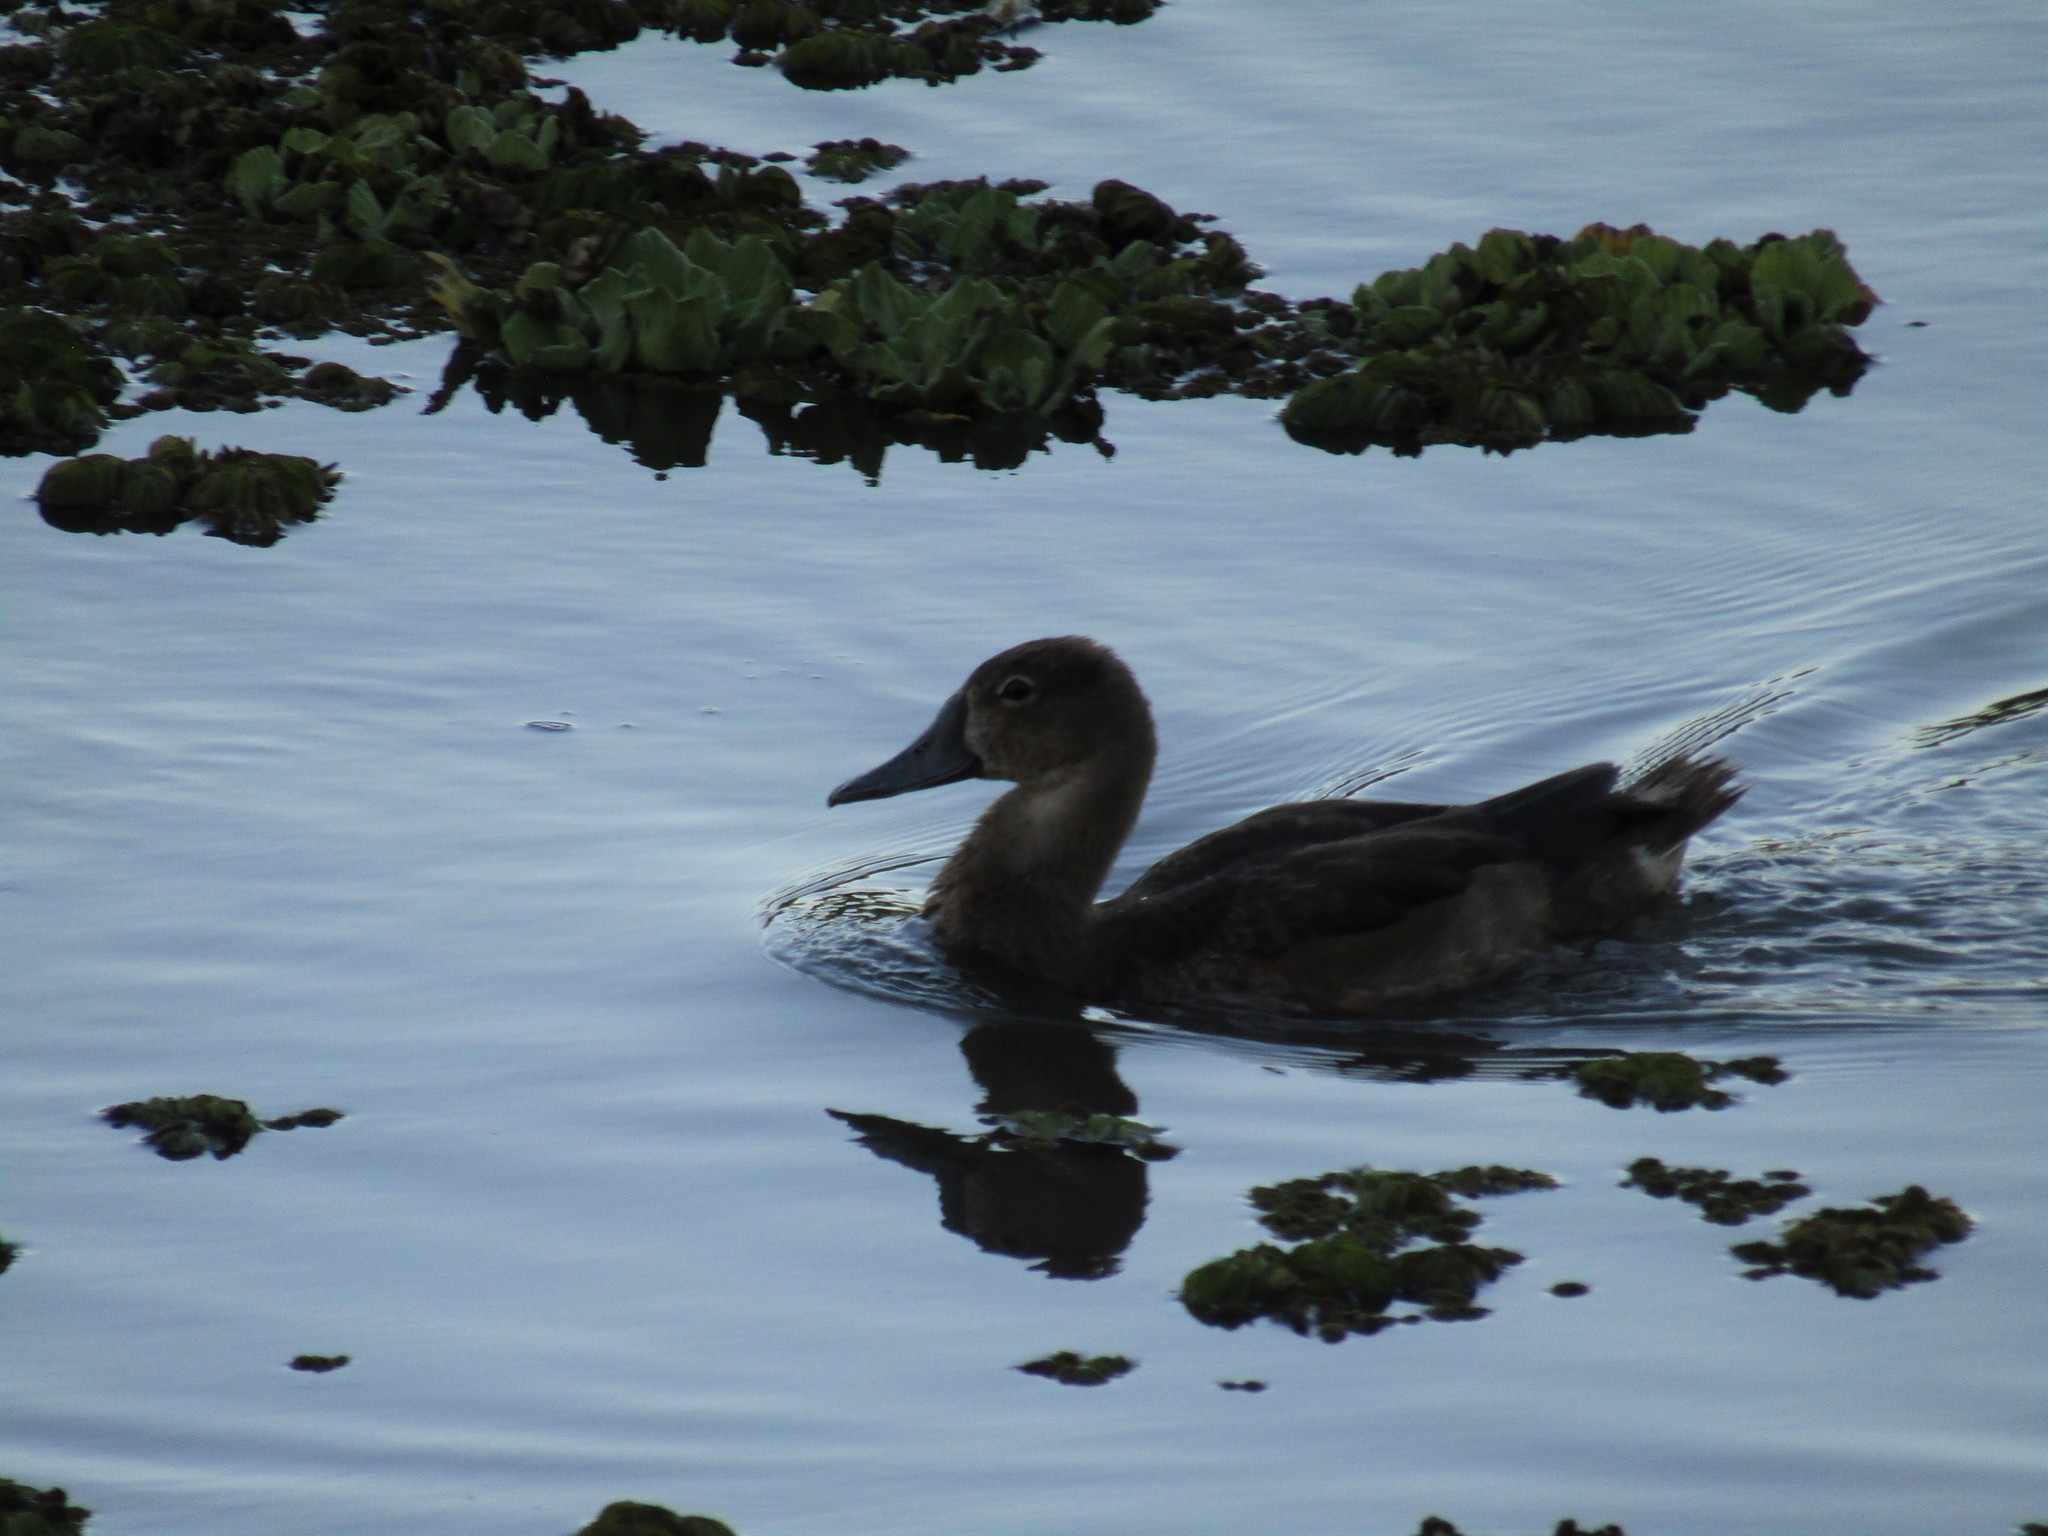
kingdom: Animalia
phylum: Chordata
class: Aves
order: Anseriformes
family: Anatidae
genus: Netta
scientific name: Netta peposaca
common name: Rosy-billed pochard
